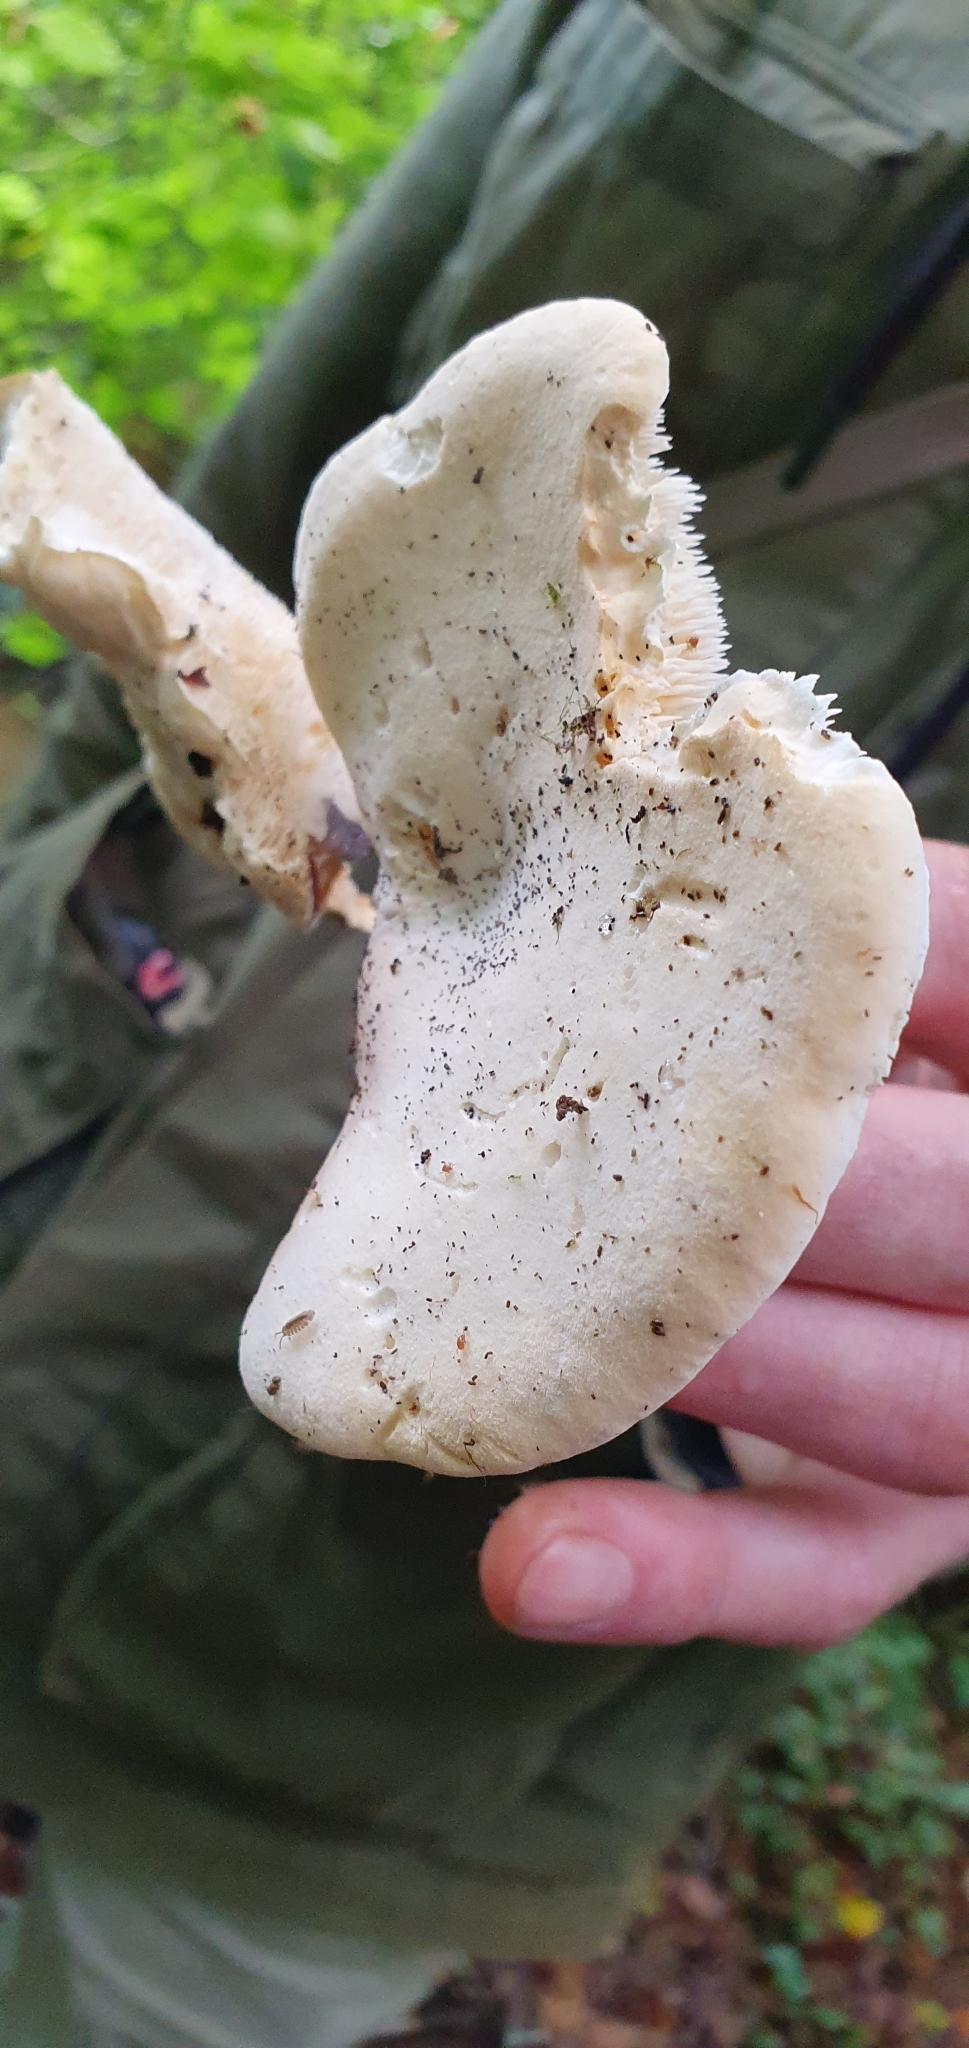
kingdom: Fungi
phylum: Basidiomycota
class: Agaricomycetes
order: Cantharellales
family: Hydnaceae
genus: Hydnum
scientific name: Hydnum repandum
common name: Wood hedgehog
